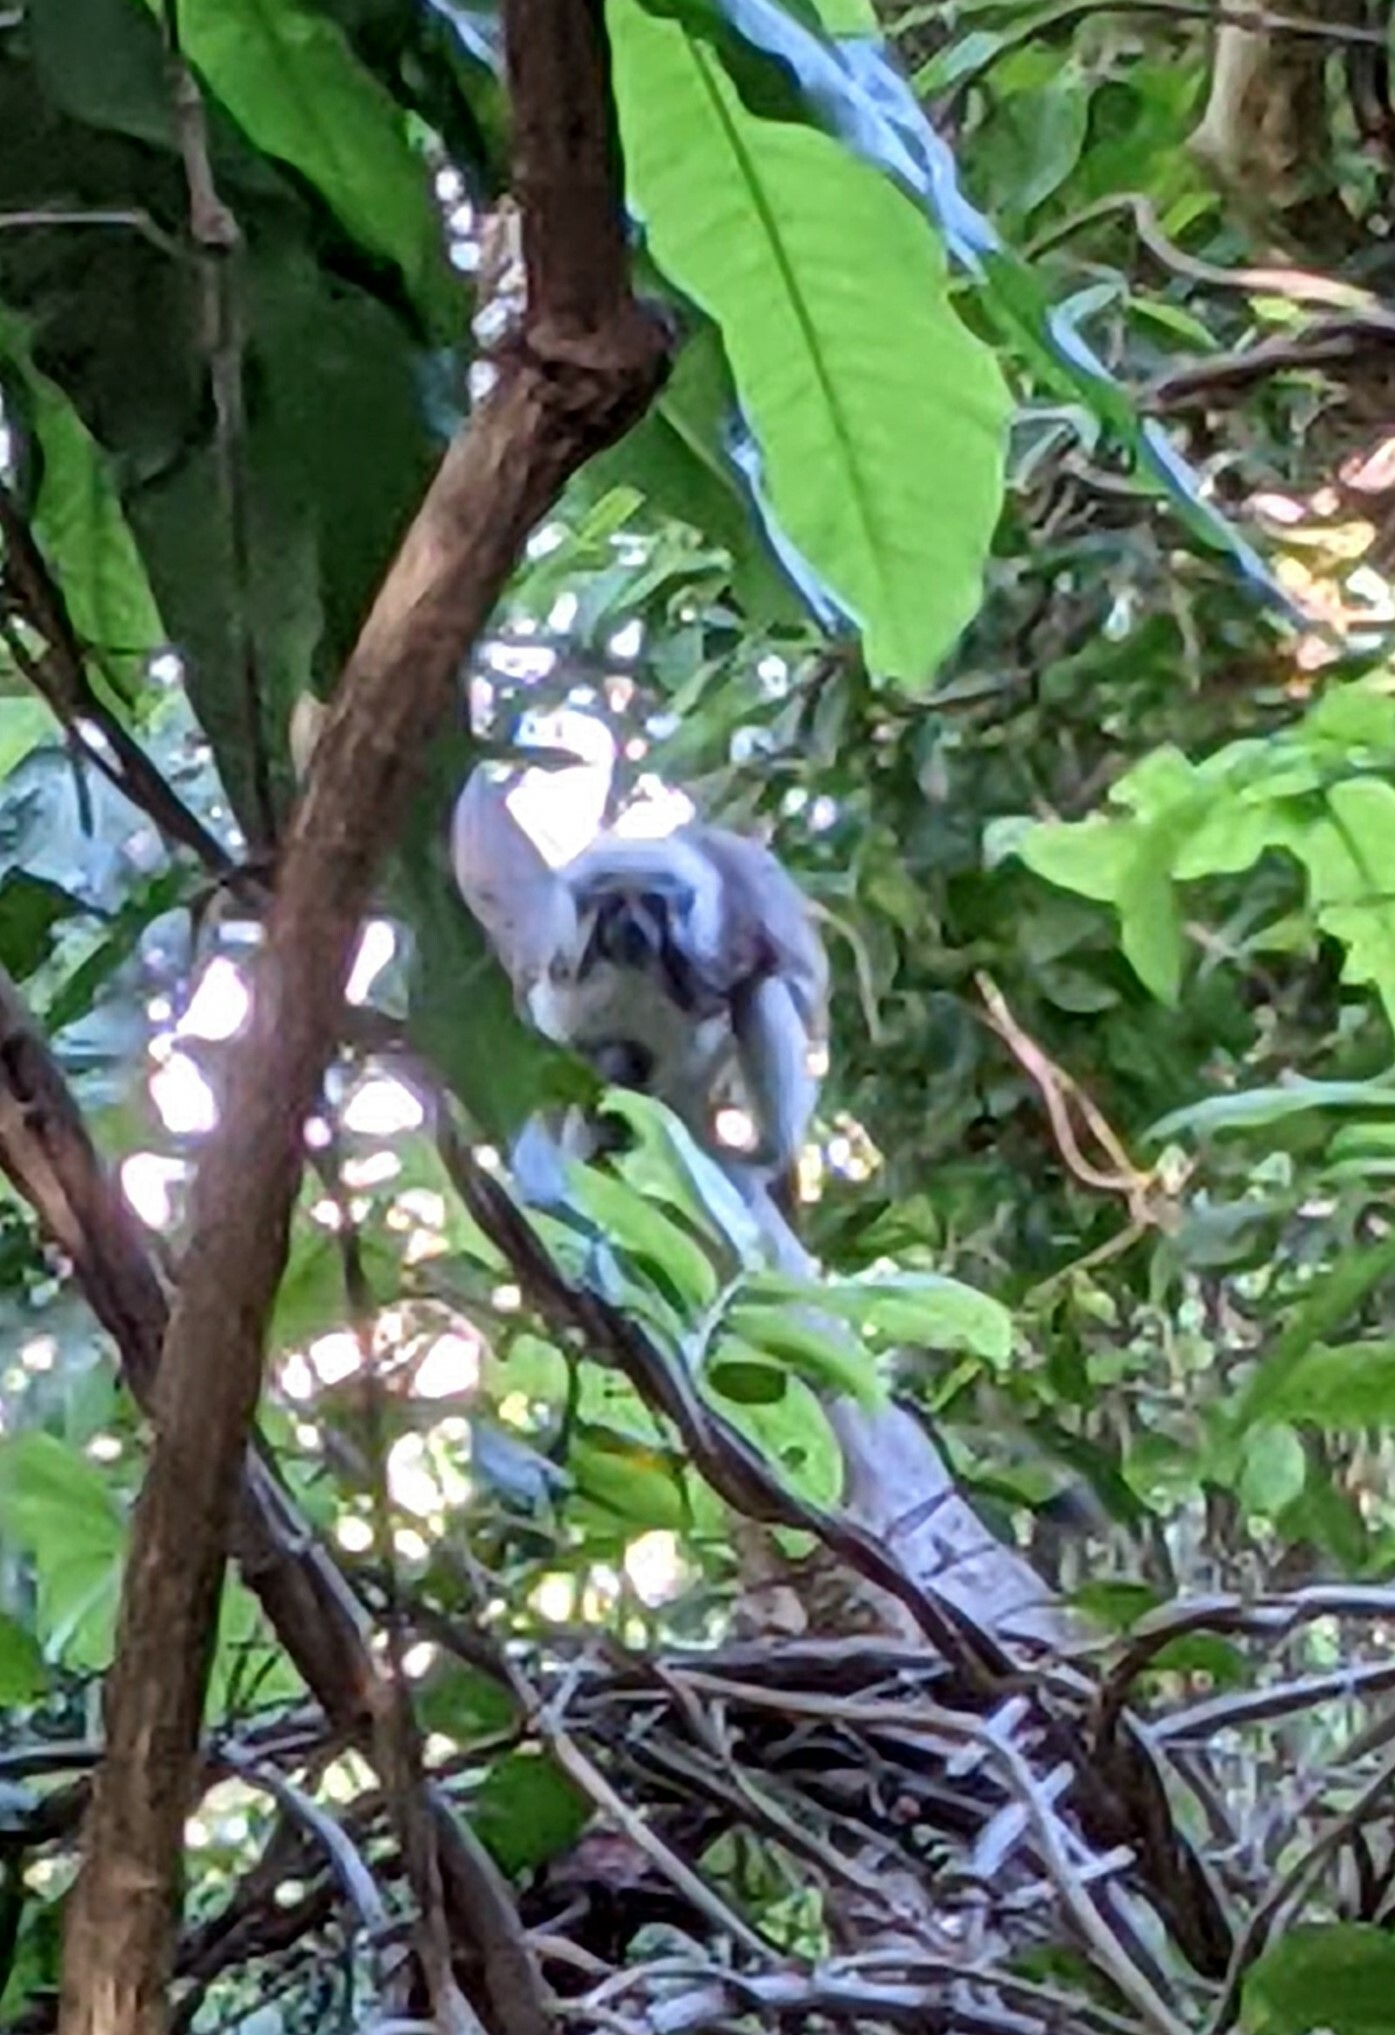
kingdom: Animalia
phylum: Chordata
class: Mammalia
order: Primates
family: Callitrichidae
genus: Saguinus
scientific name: Saguinus oedipus
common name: Cottontop tamarin
